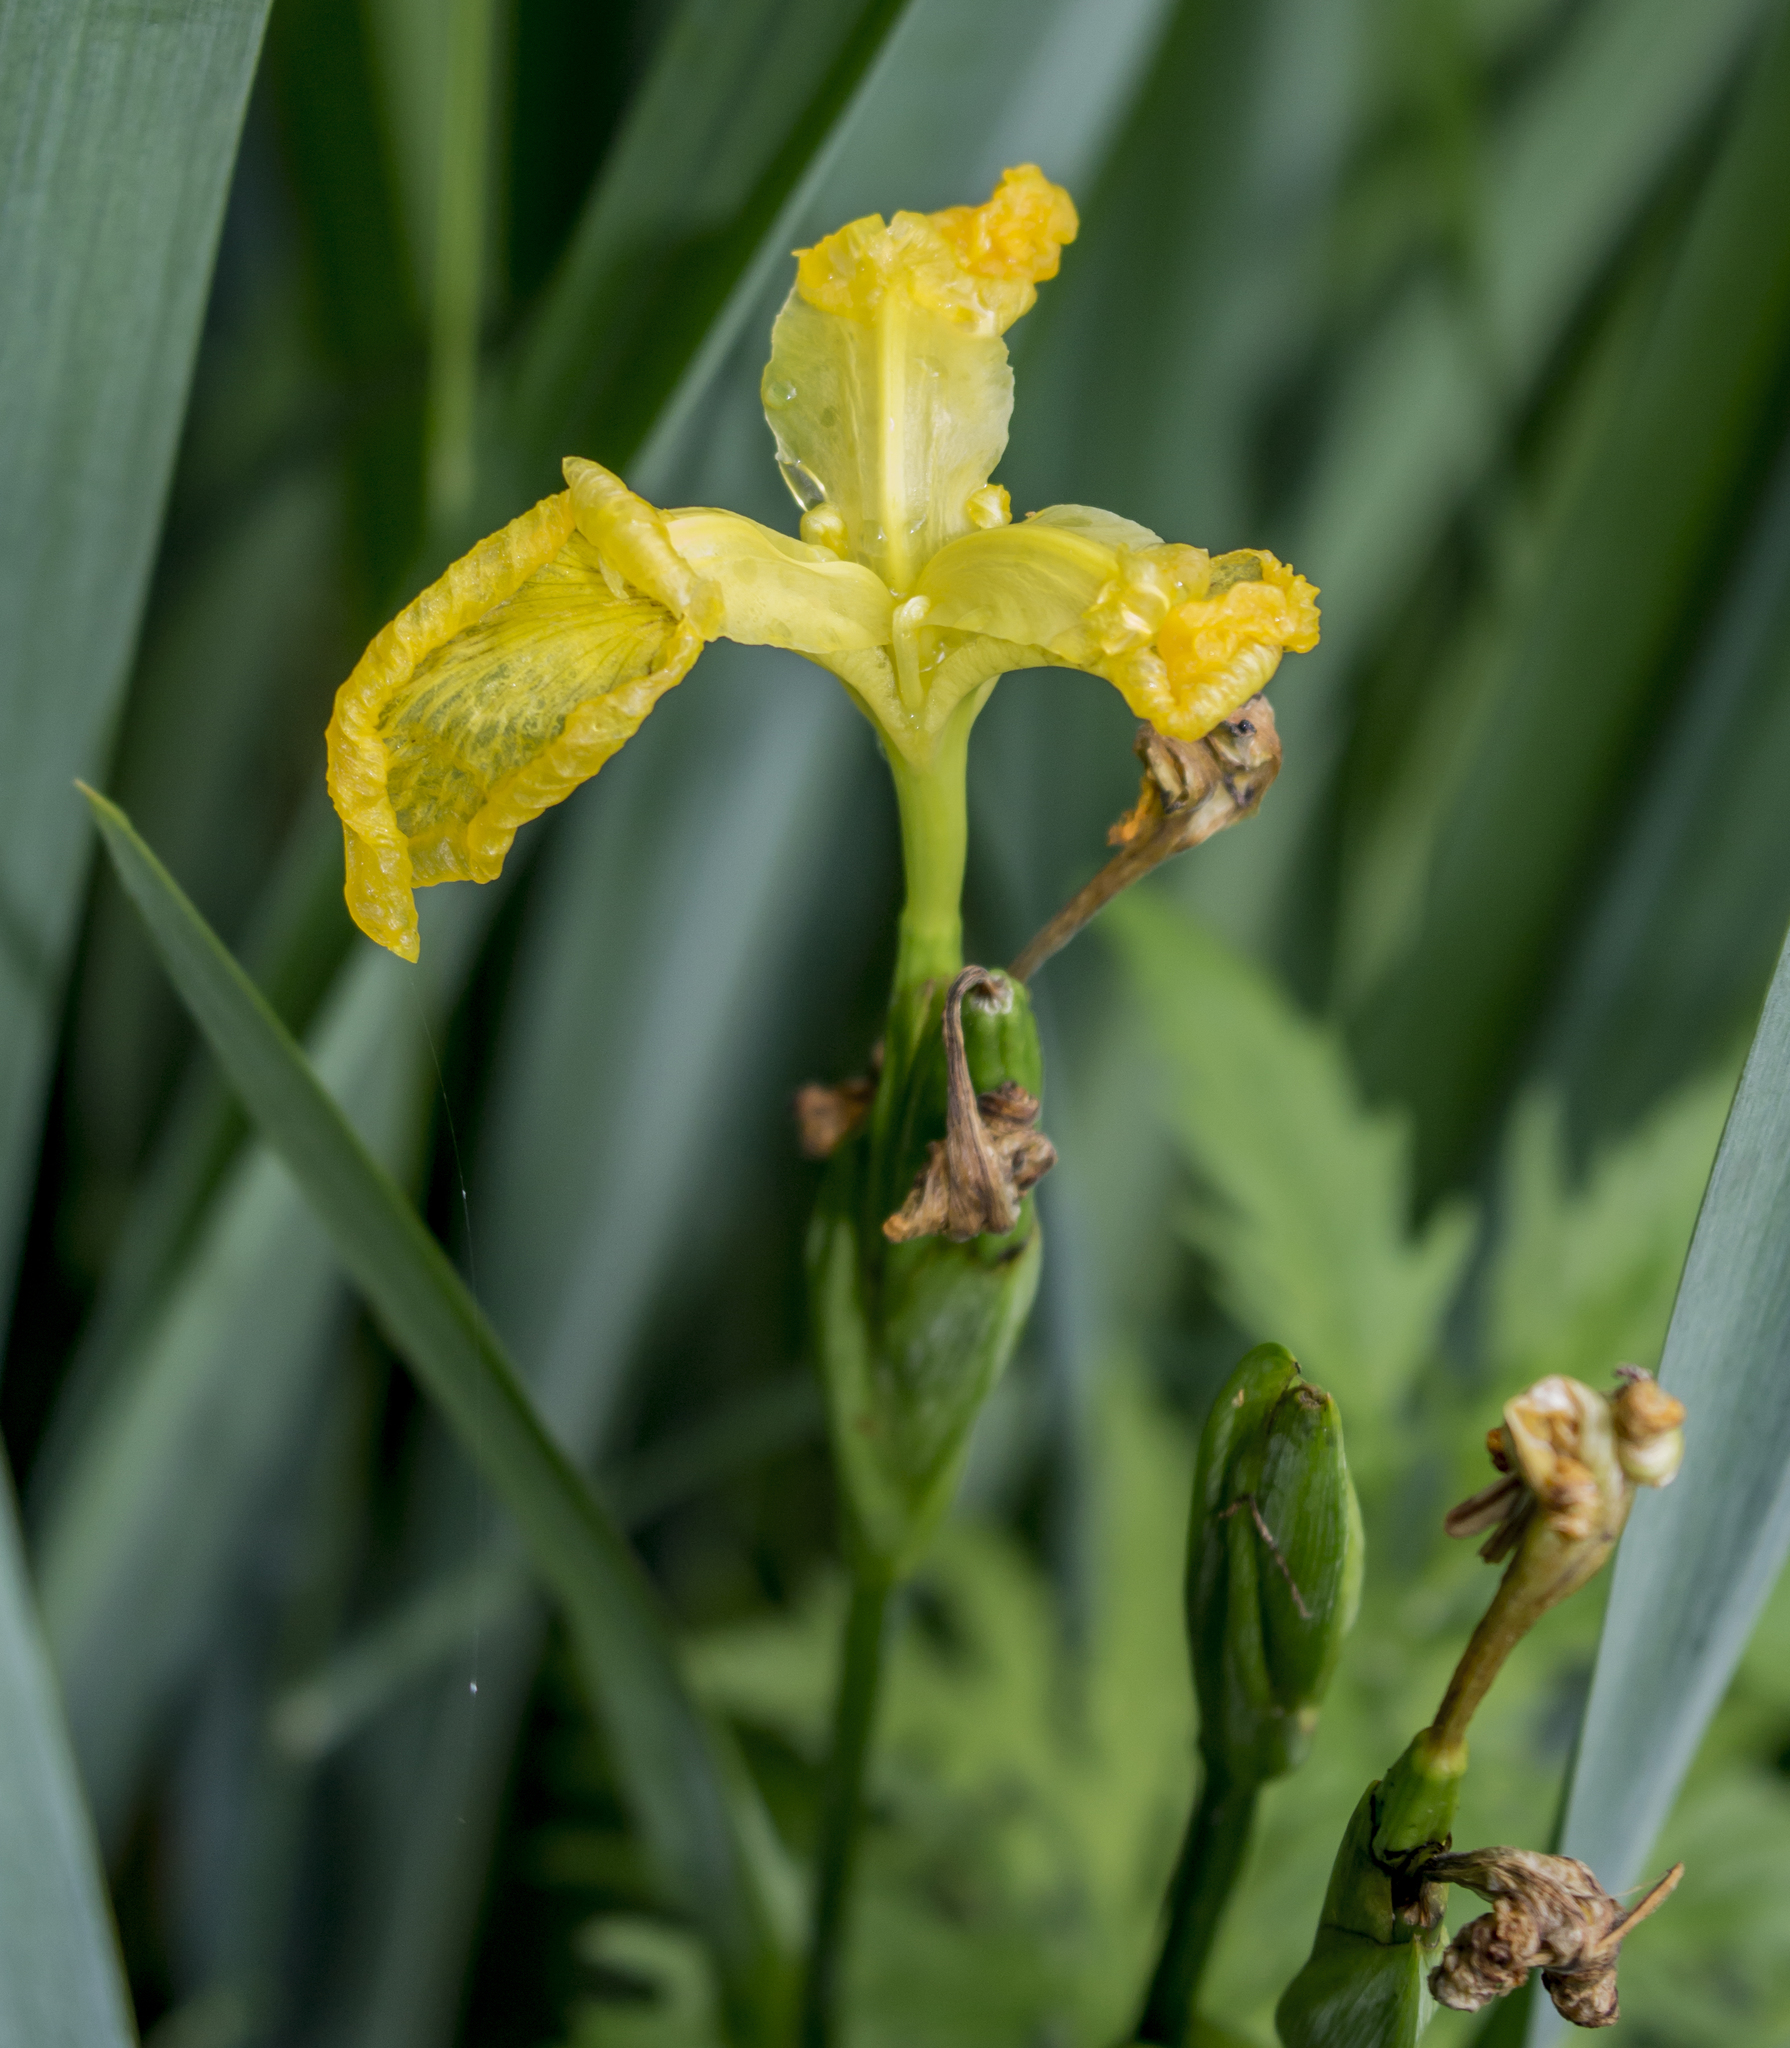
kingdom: Plantae
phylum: Tracheophyta
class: Liliopsida
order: Asparagales
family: Iridaceae
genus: Iris
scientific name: Iris pseudacorus
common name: Yellow flag
